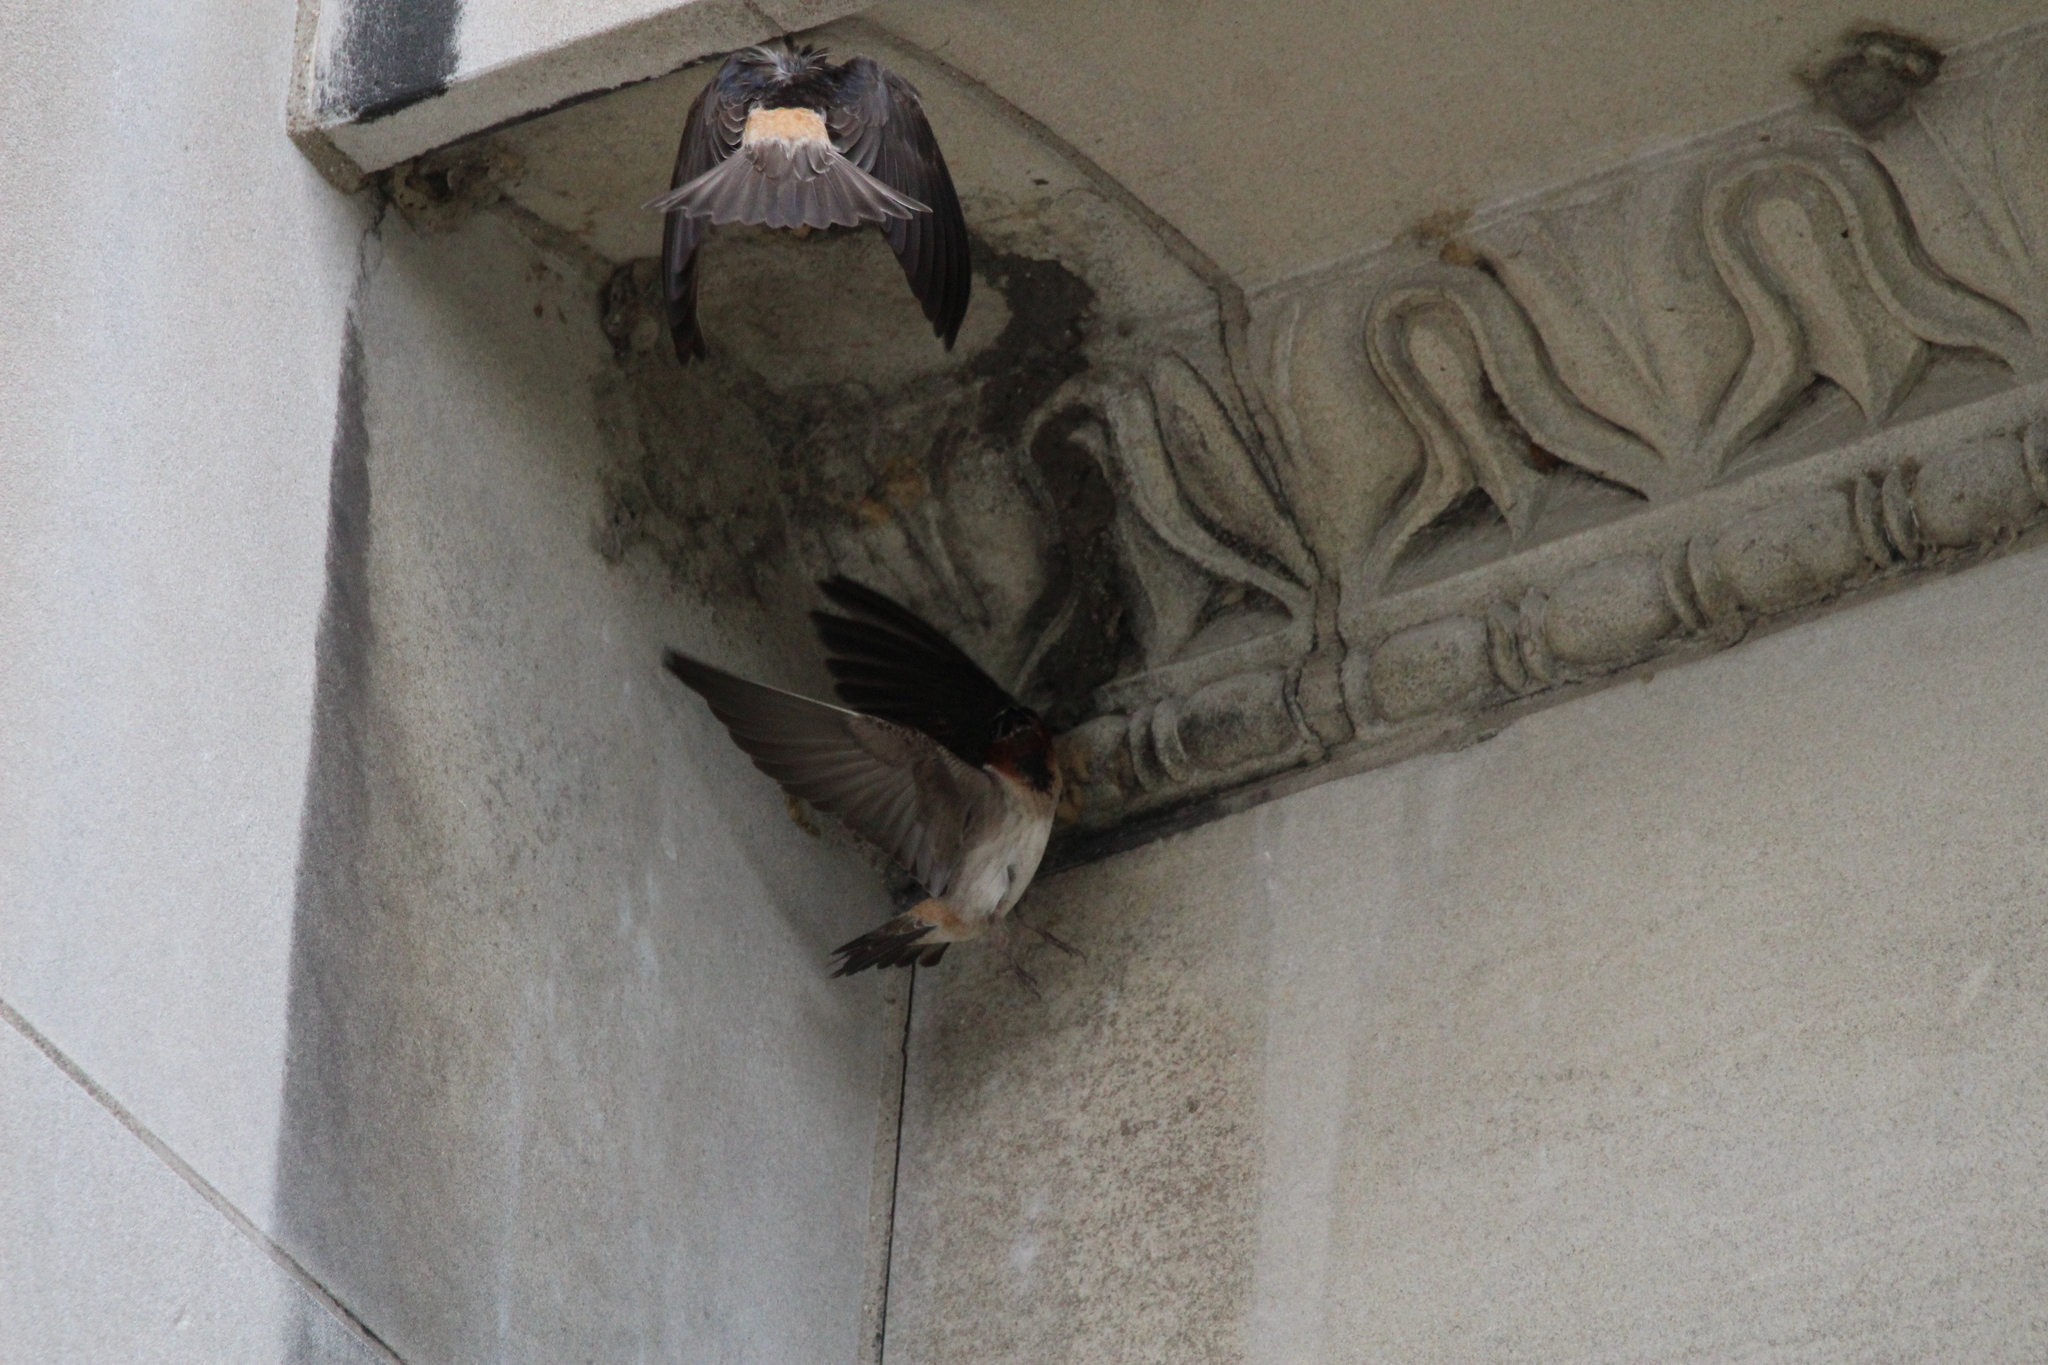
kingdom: Animalia
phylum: Chordata
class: Aves
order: Passeriformes
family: Hirundinidae
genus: Petrochelidon
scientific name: Petrochelidon pyrrhonota
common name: American cliff swallow
